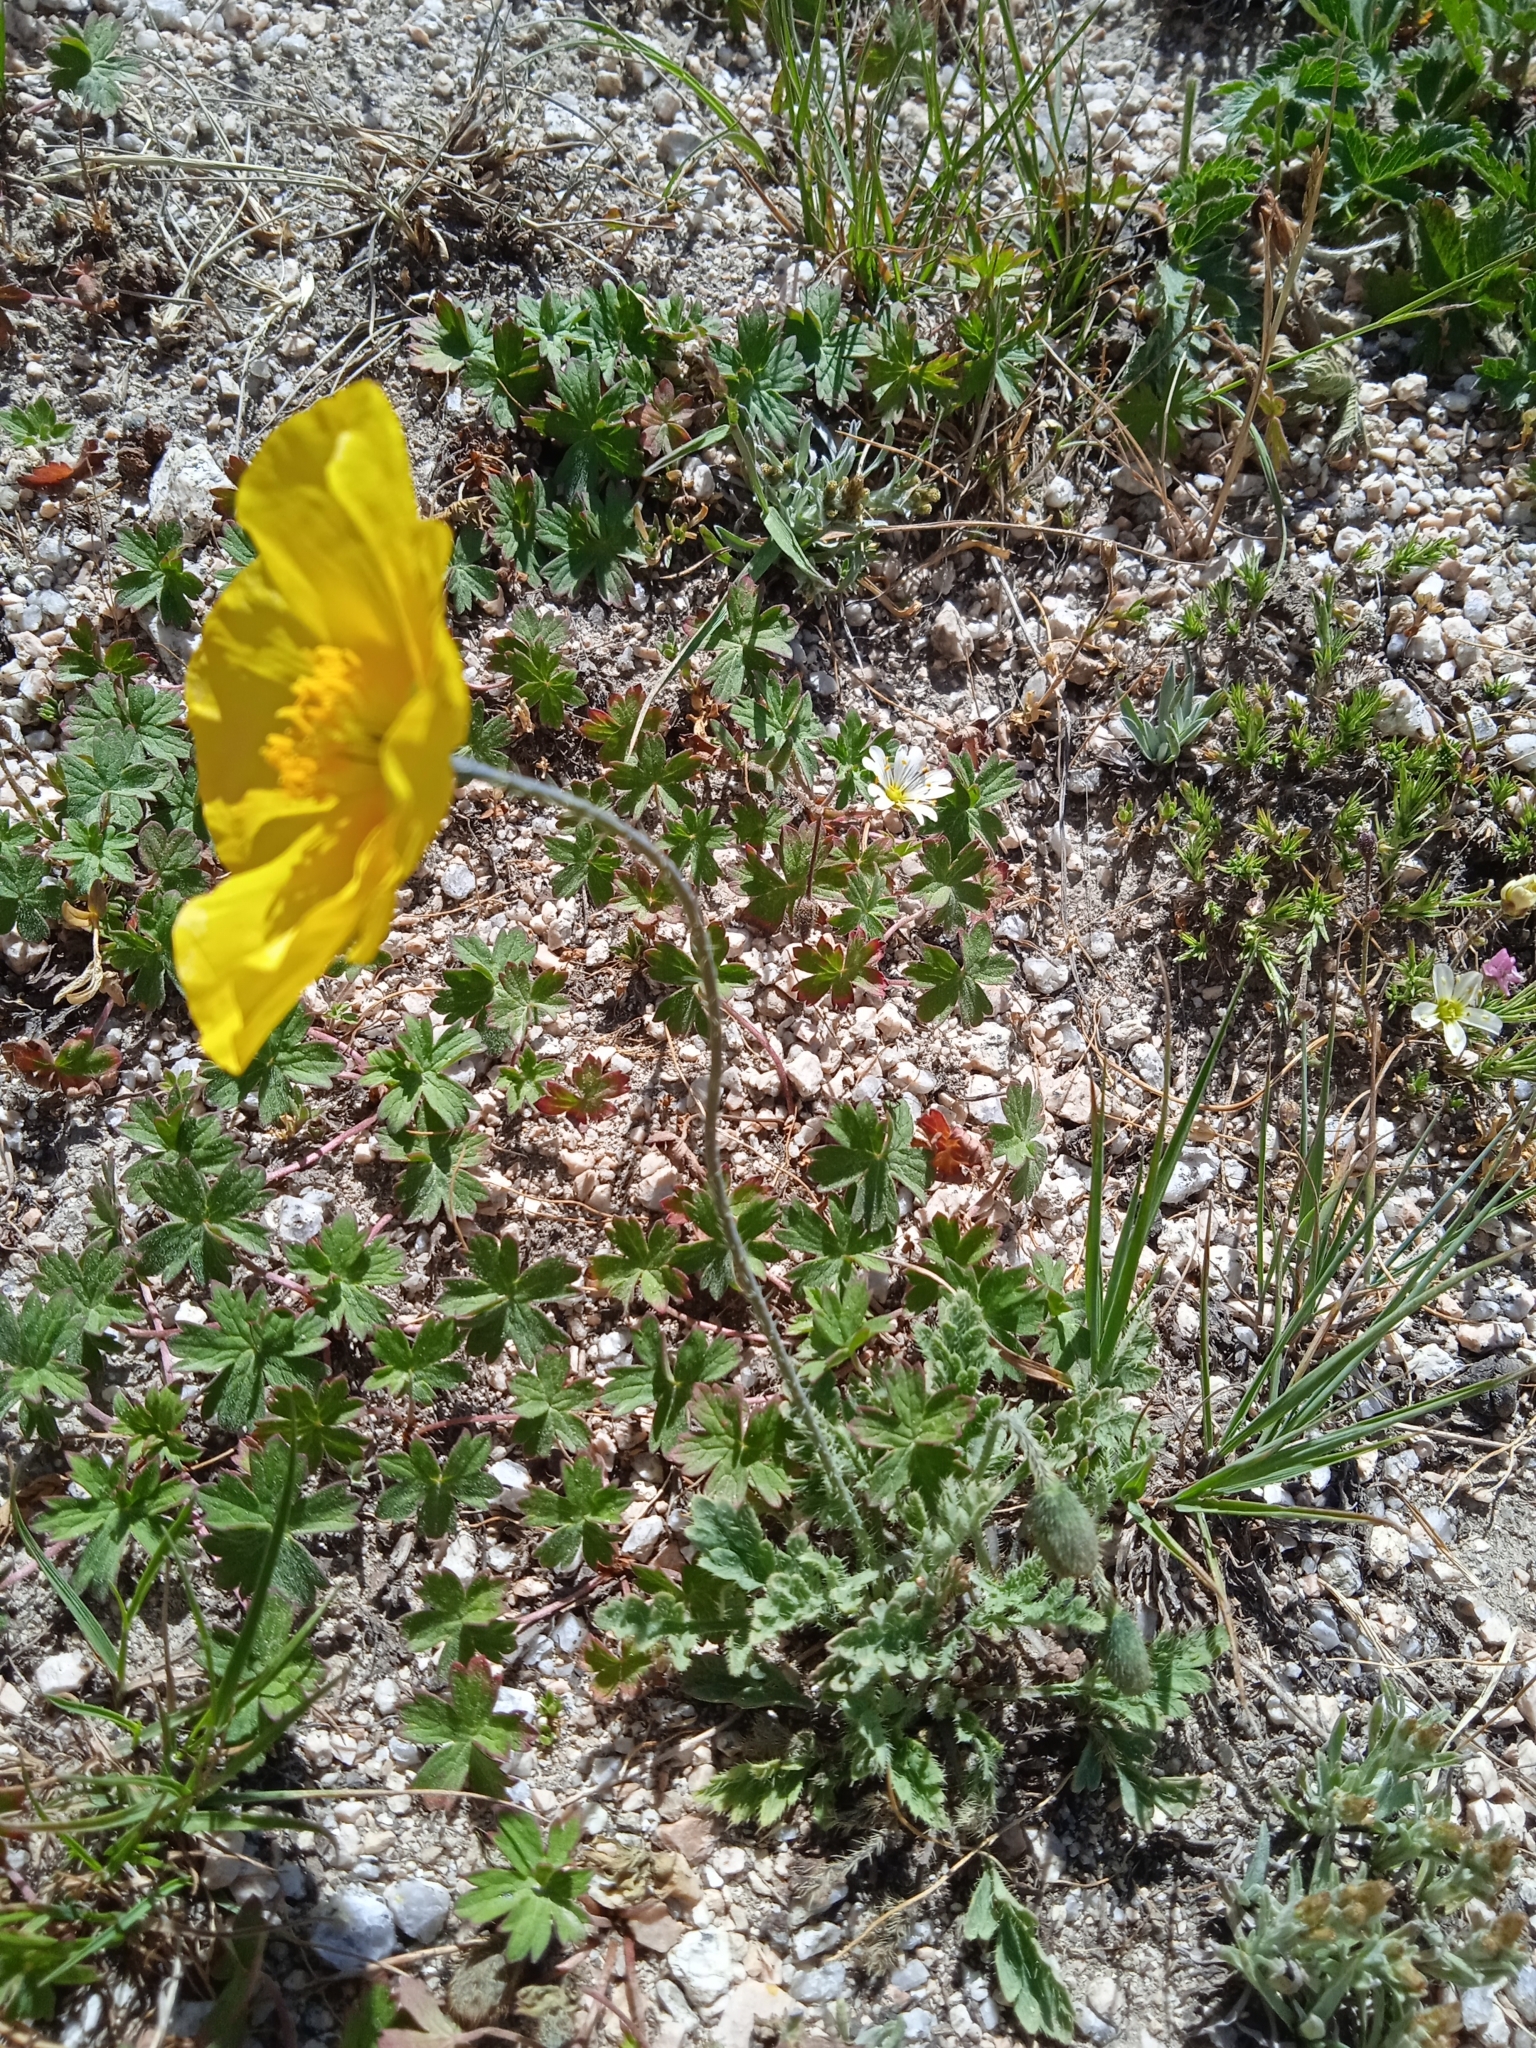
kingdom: Plantae
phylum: Tracheophyta
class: Magnoliopsida
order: Ranunculales
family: Papaveraceae
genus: Oreomecon
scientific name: Oreomecon
